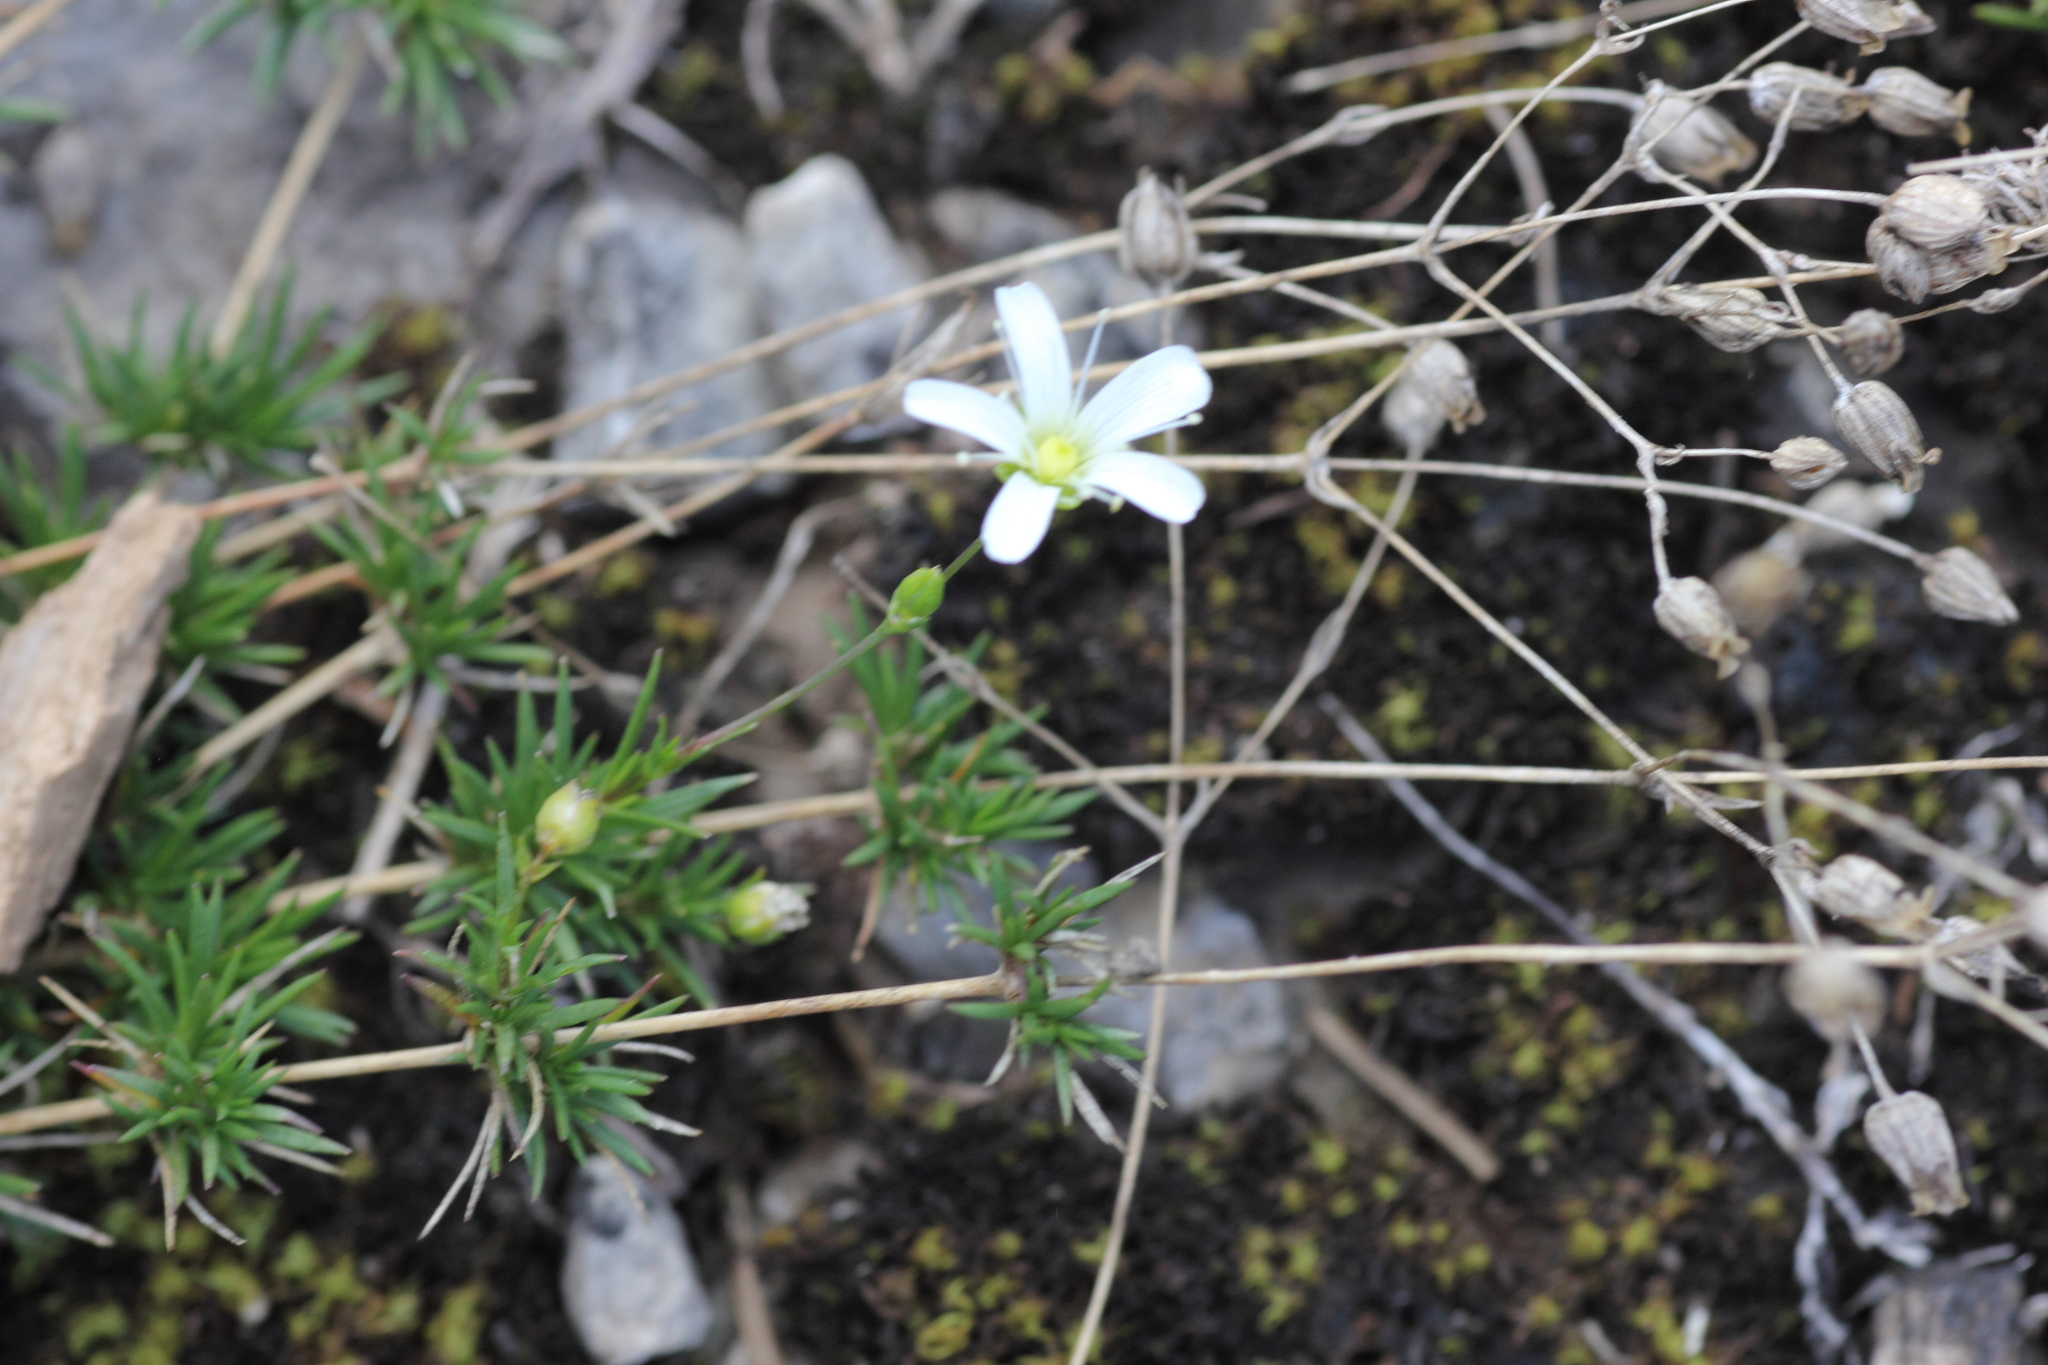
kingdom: Plantae
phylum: Tracheophyta
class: Magnoliopsida
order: Caryophyllales
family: Caryophyllaceae
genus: Sabulina
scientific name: Sabulina michauxii
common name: Michaux's stitchwort
